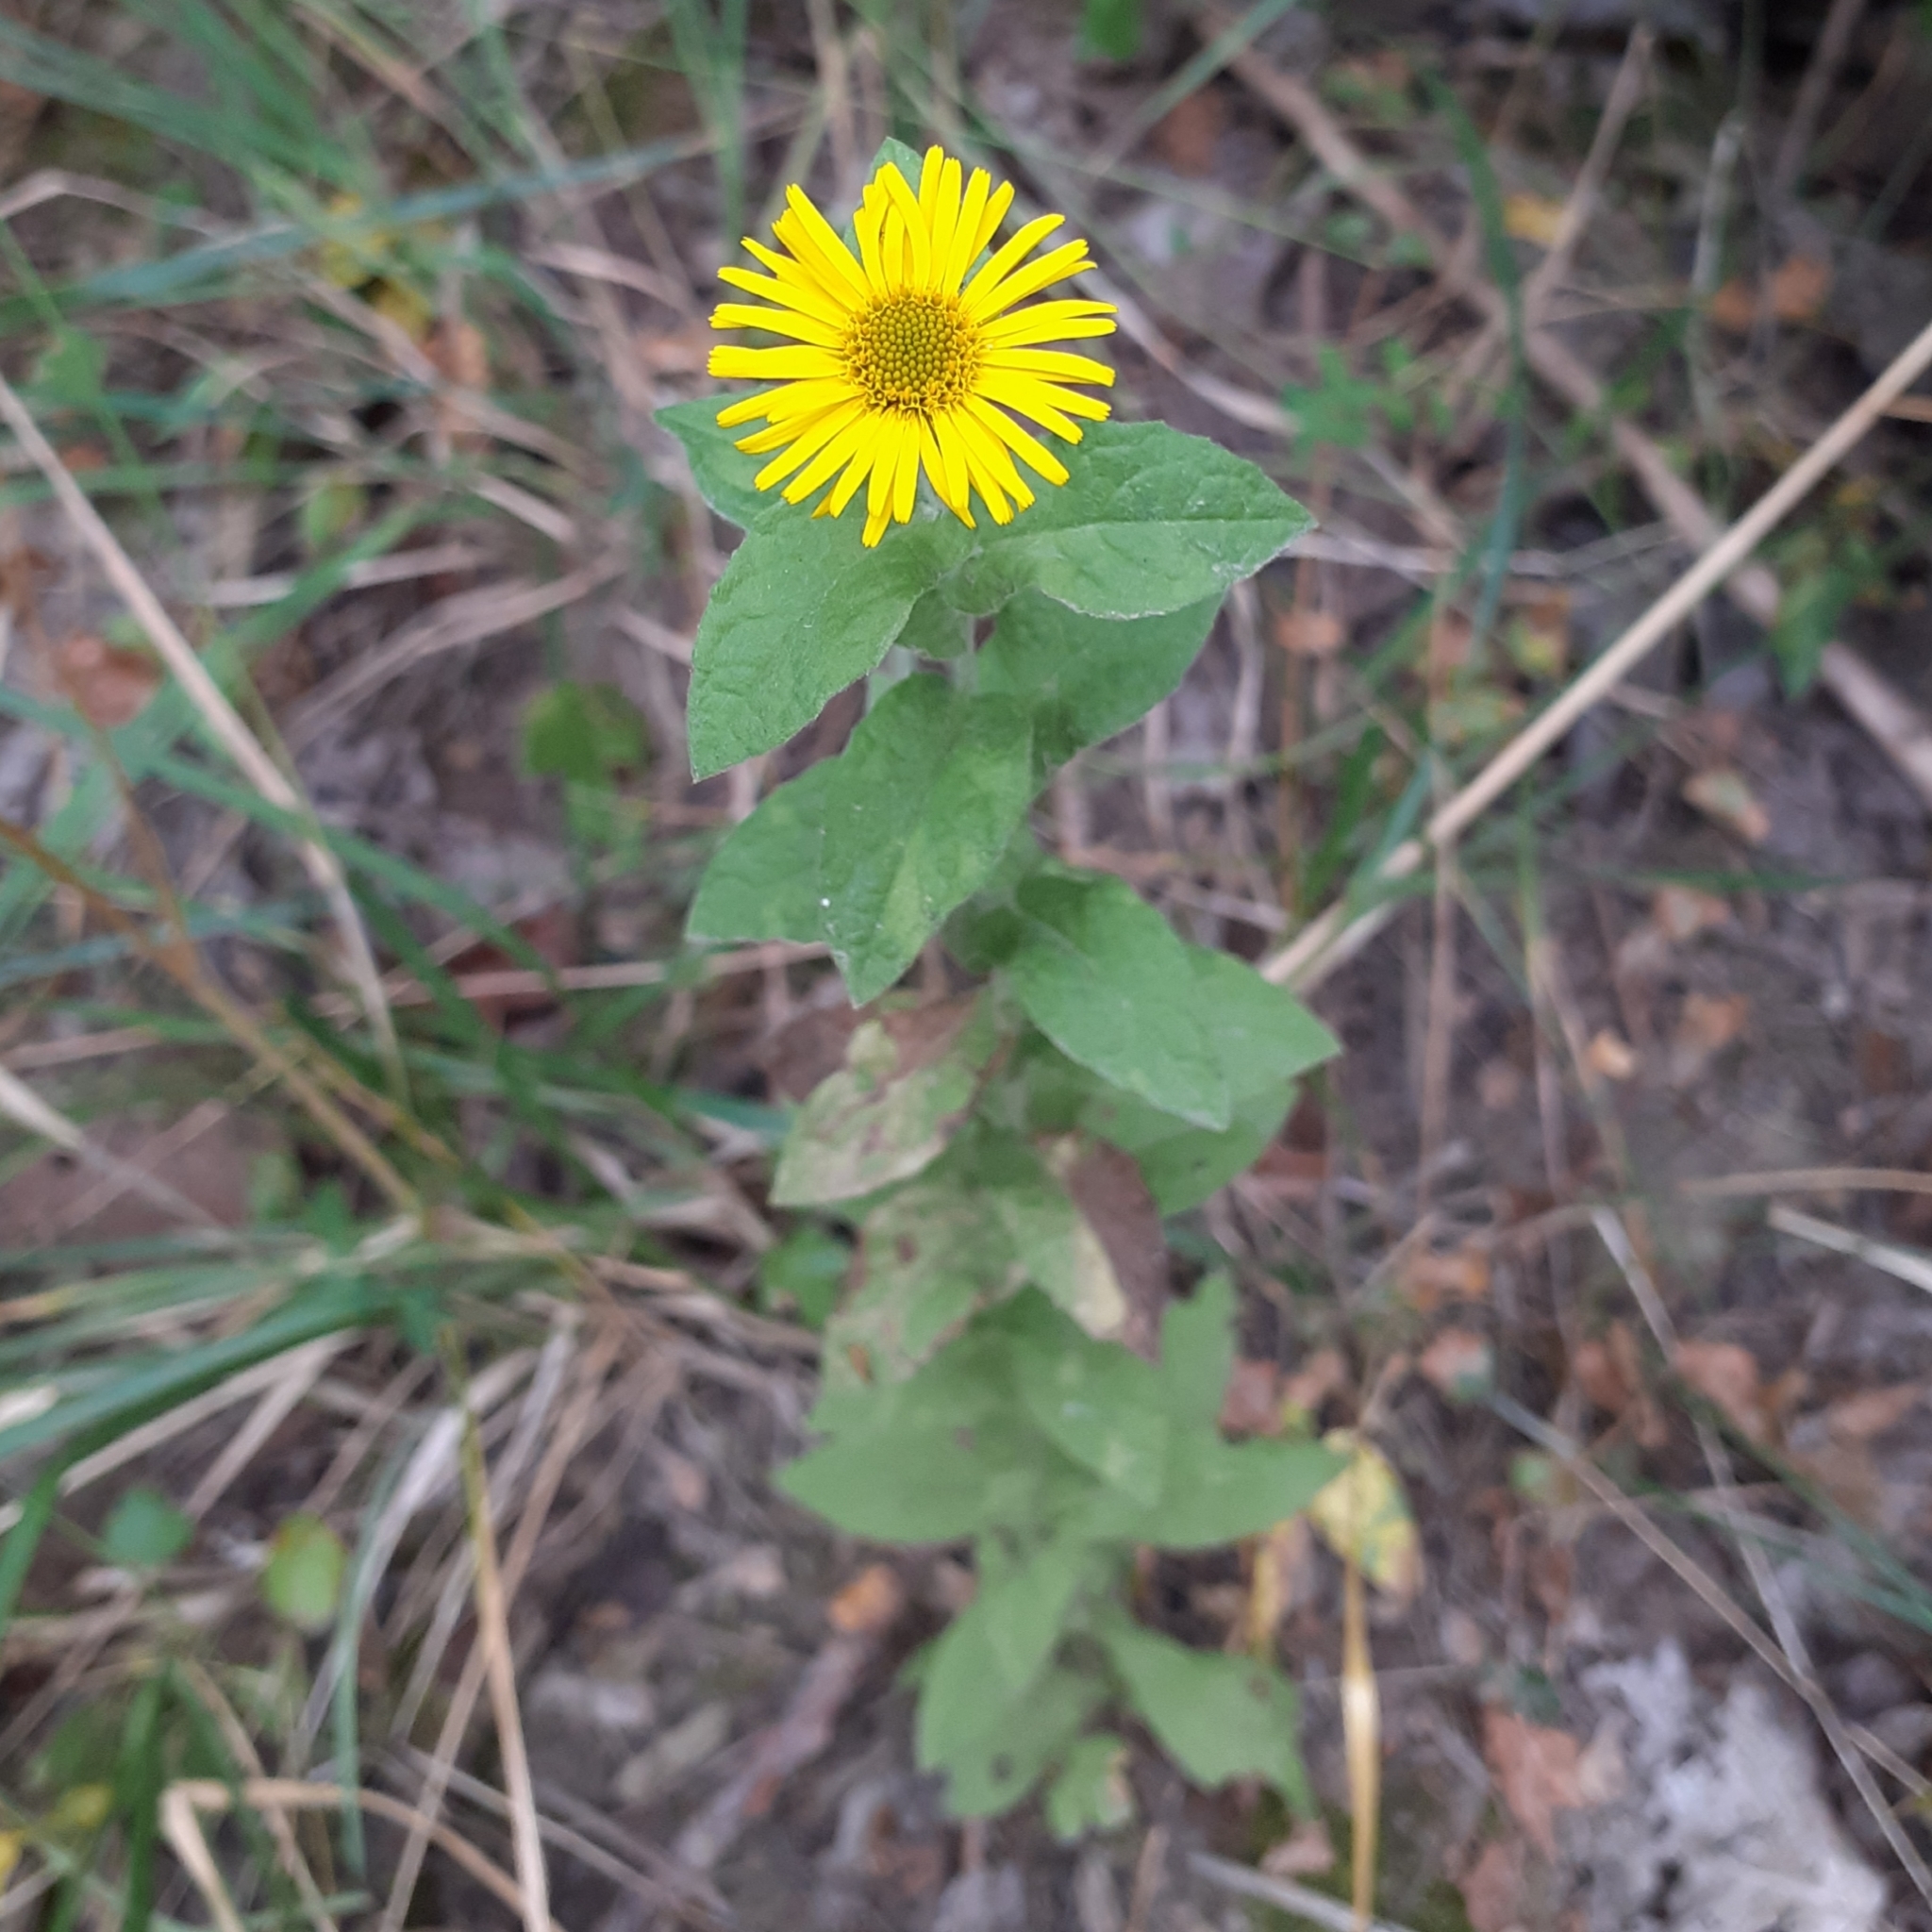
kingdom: Plantae
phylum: Tracheophyta
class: Magnoliopsida
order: Asterales
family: Asteraceae
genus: Pulicaria
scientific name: Pulicaria dysenterica
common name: Common fleabane
